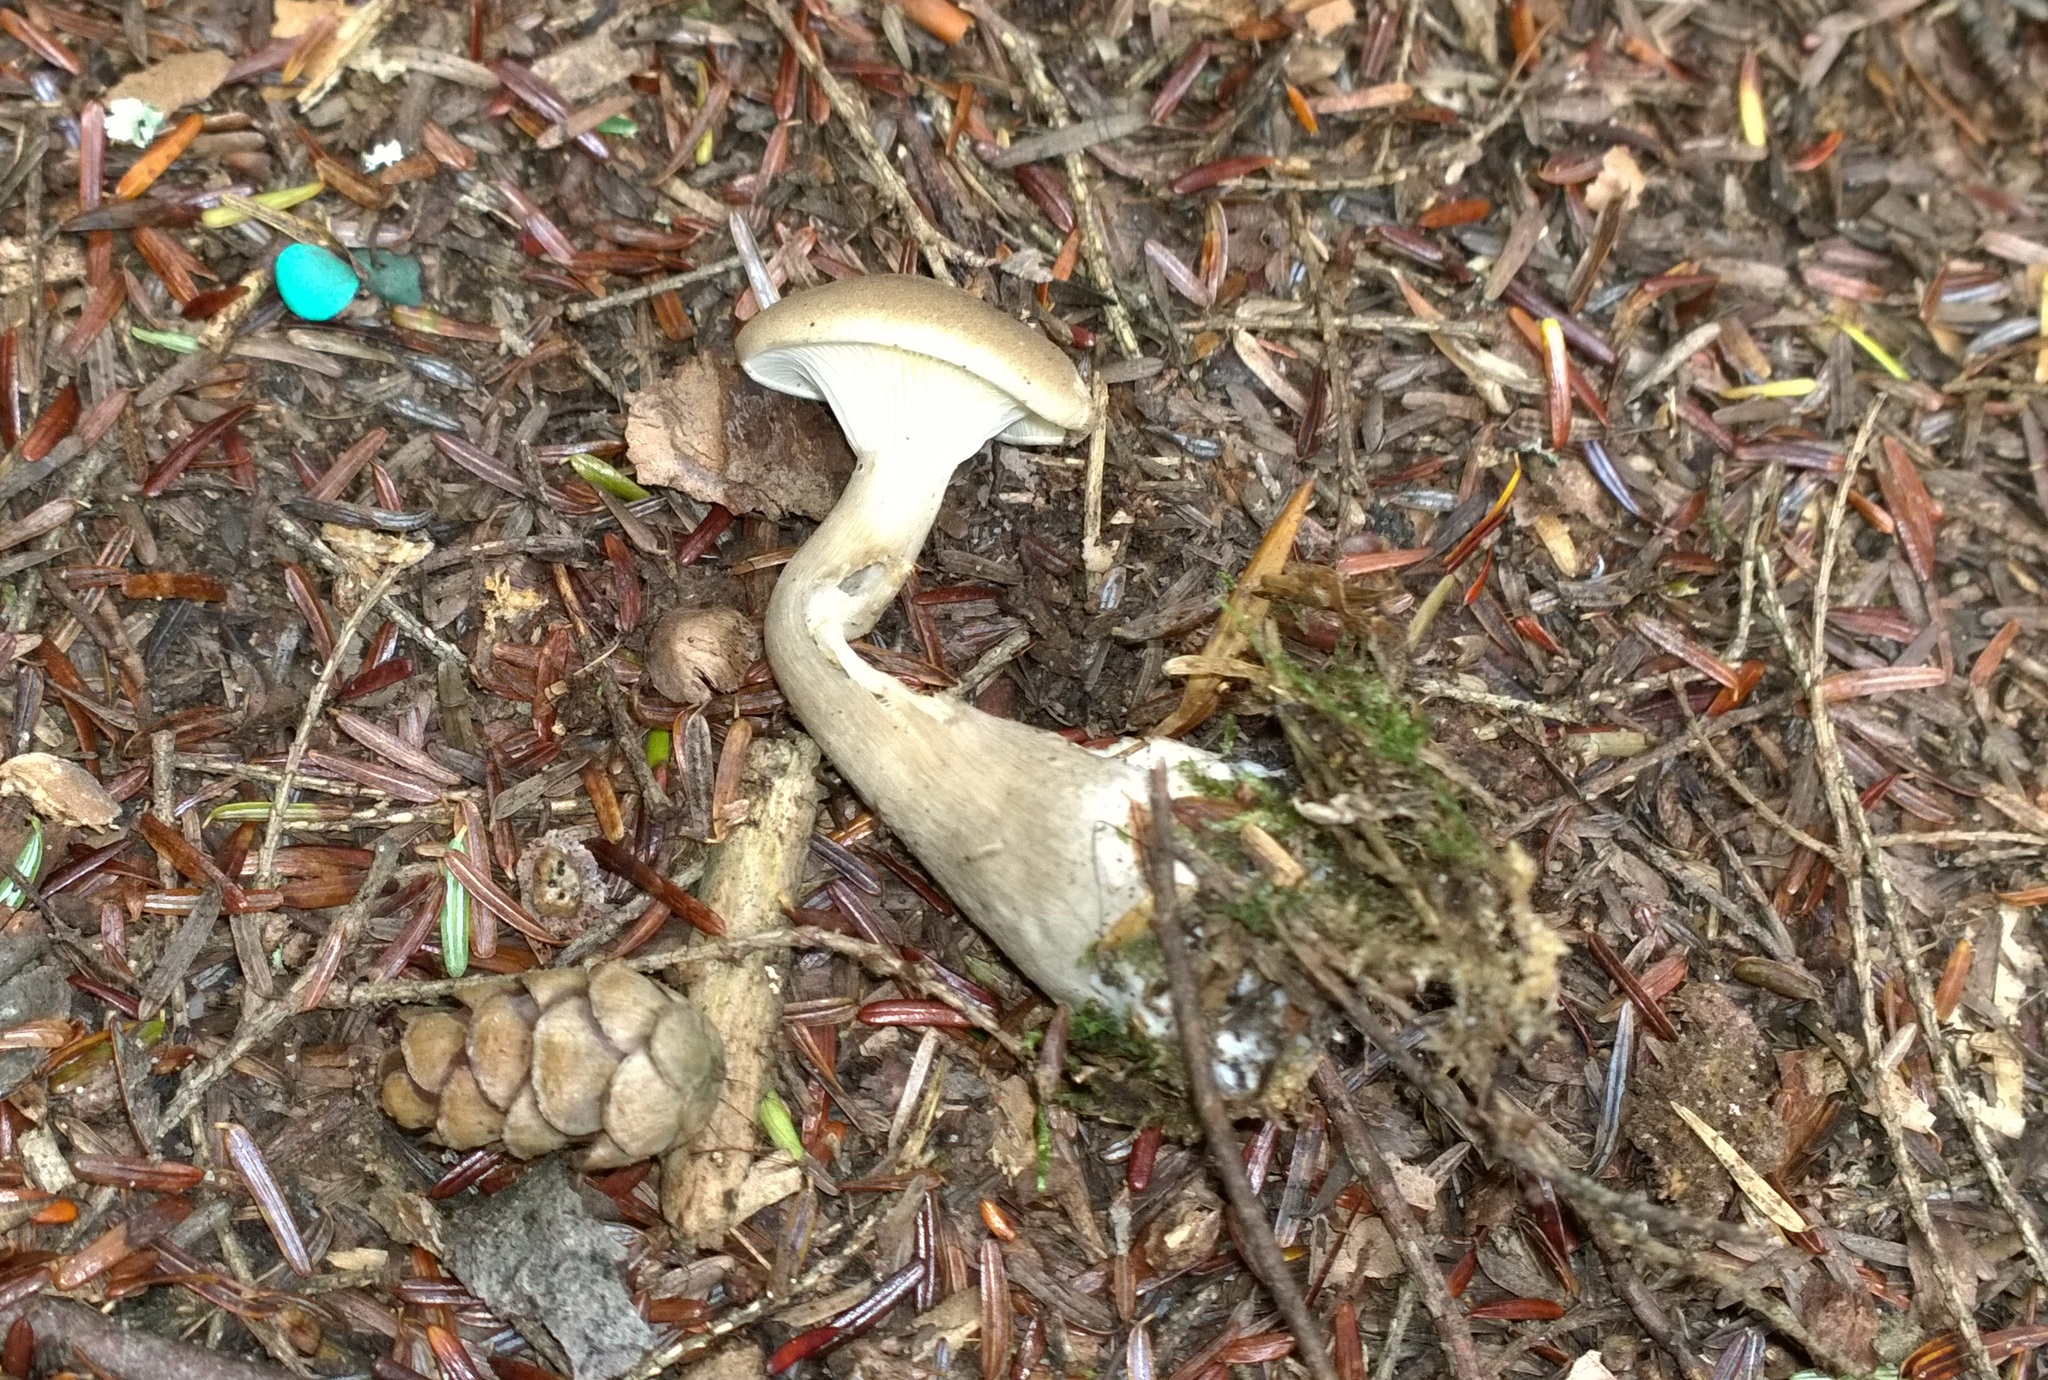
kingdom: Fungi
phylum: Basidiomycota
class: Agaricomycetes
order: Agaricales
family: Hygrophoraceae
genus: Ampulloclitocybe
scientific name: Ampulloclitocybe clavipes
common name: Club foot
